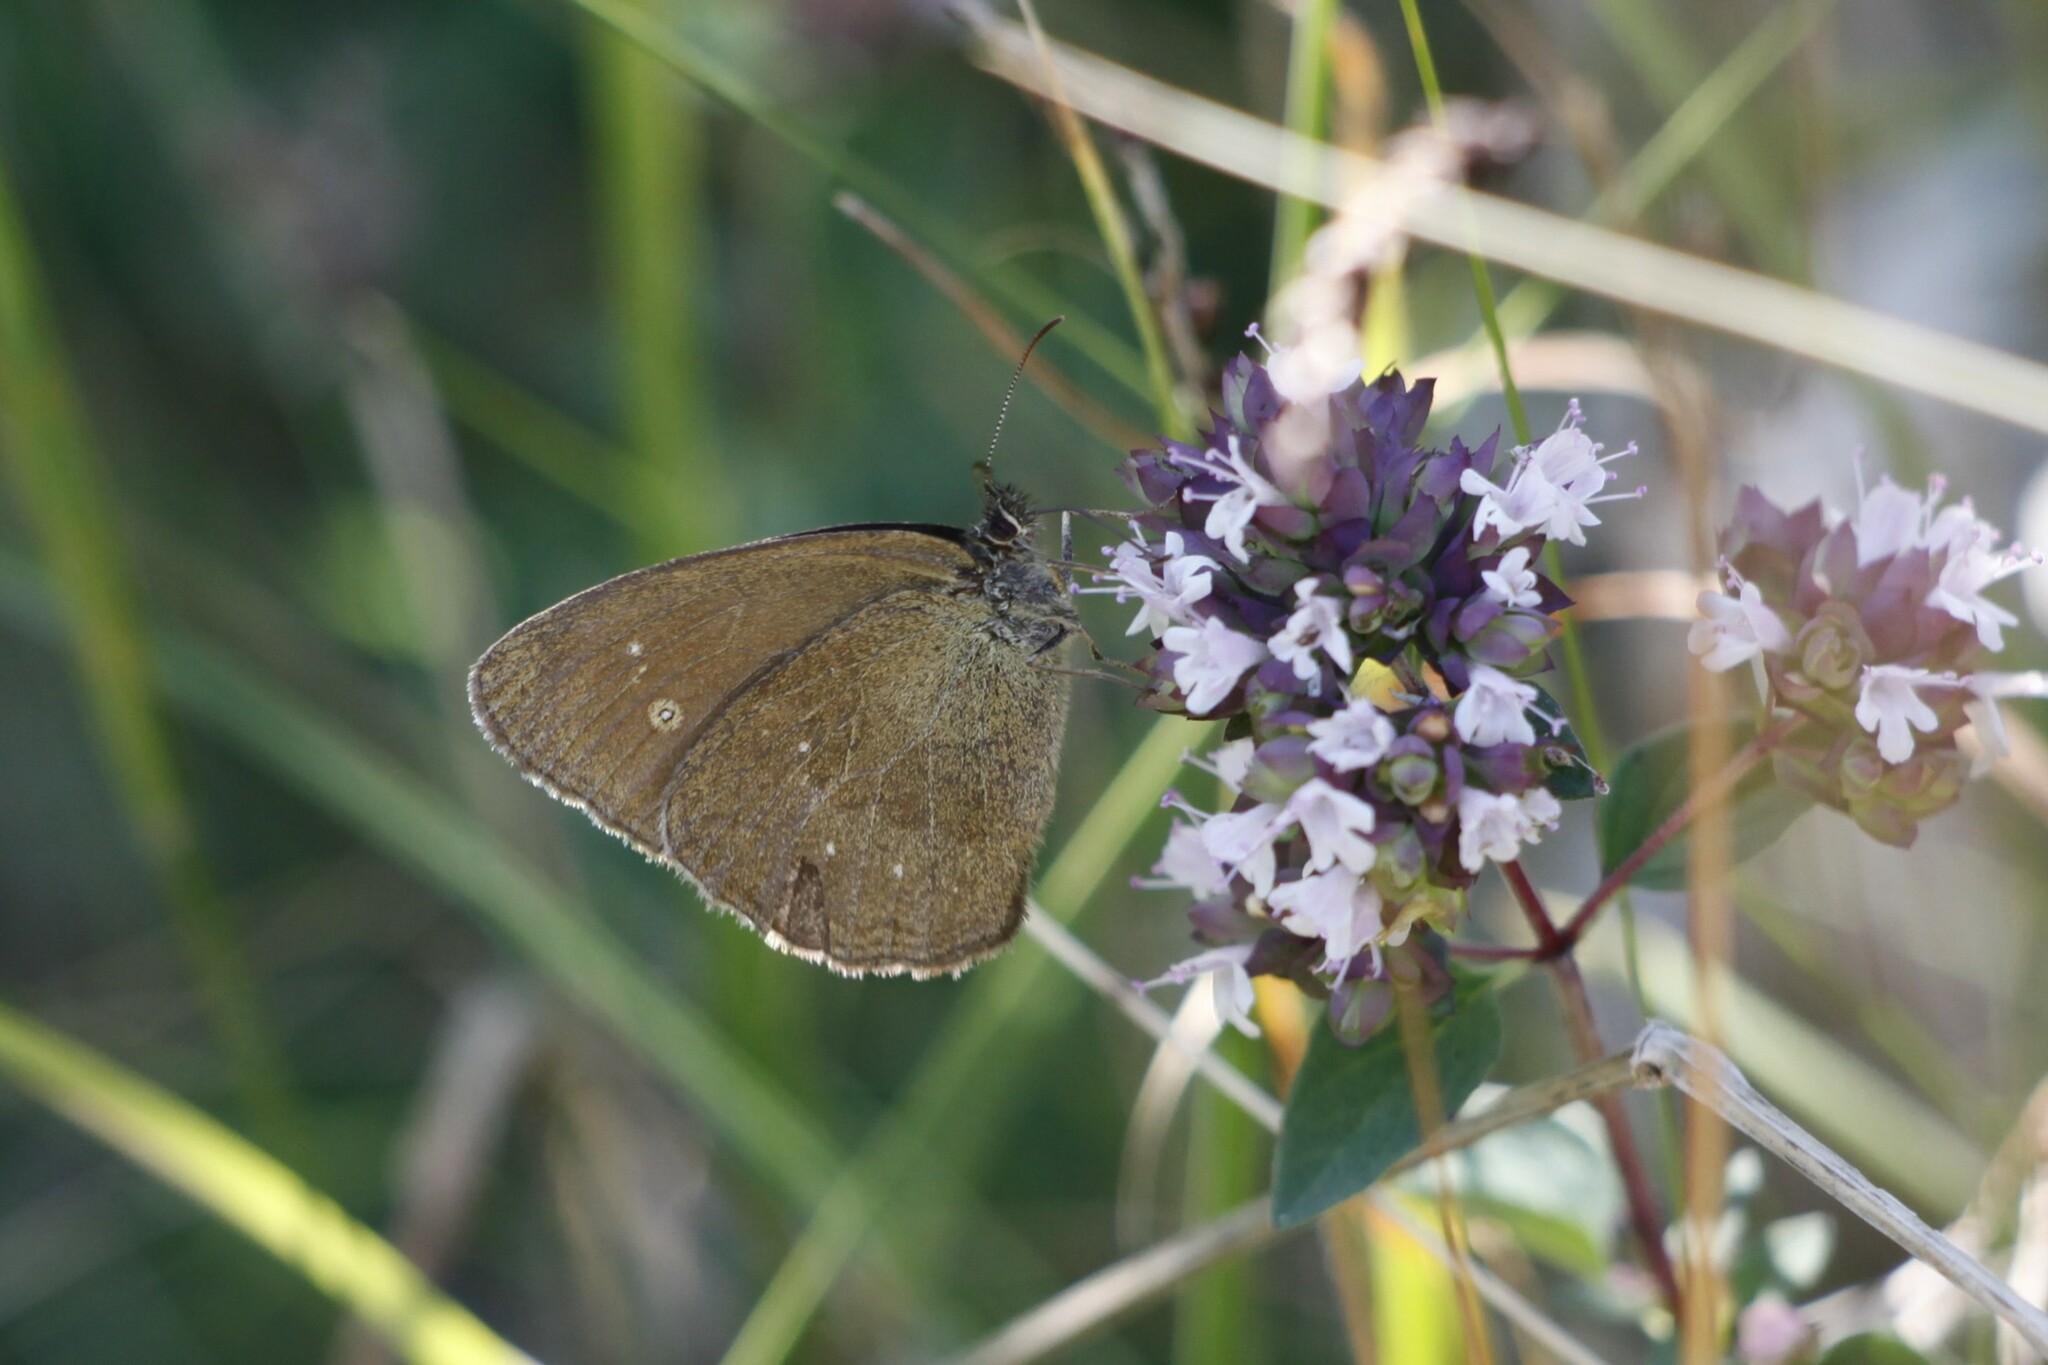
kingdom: Animalia
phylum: Arthropoda
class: Insecta
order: Lepidoptera
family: Nymphalidae
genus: Aphantopus
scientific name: Aphantopus hyperantus
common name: Ringlet
